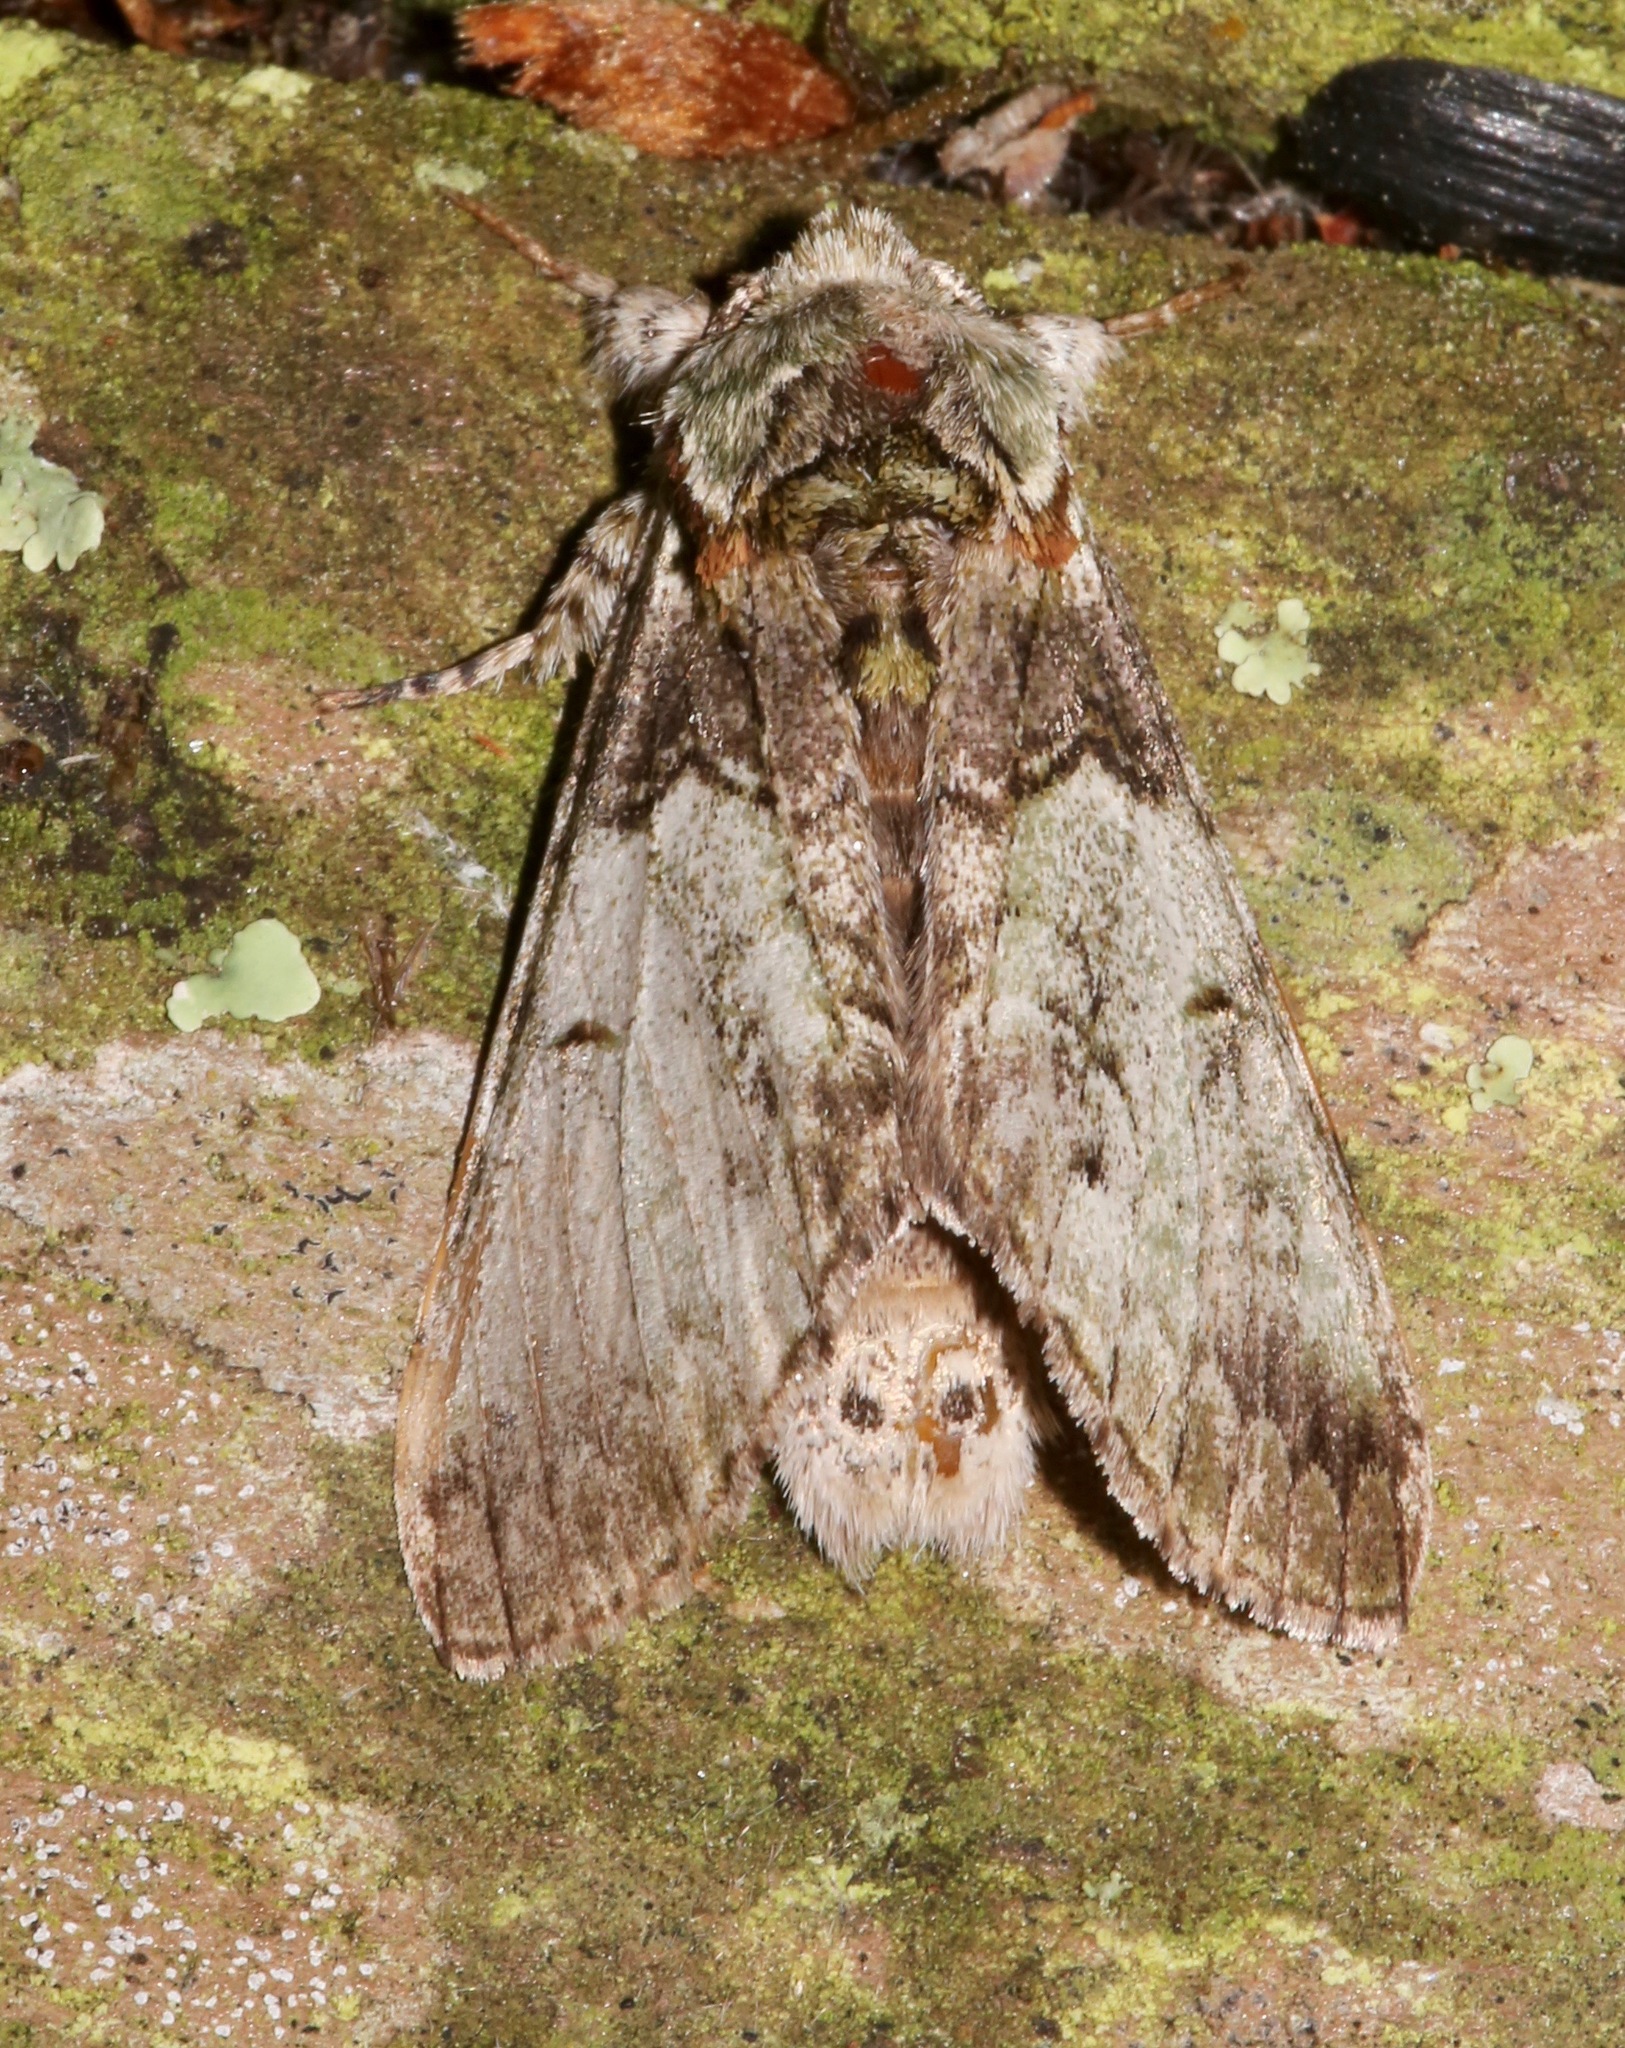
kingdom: Animalia
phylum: Arthropoda
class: Insecta
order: Lepidoptera
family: Notodontidae
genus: Macrurocampa
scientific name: Macrurocampa marthesia
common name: Mottled prominent
